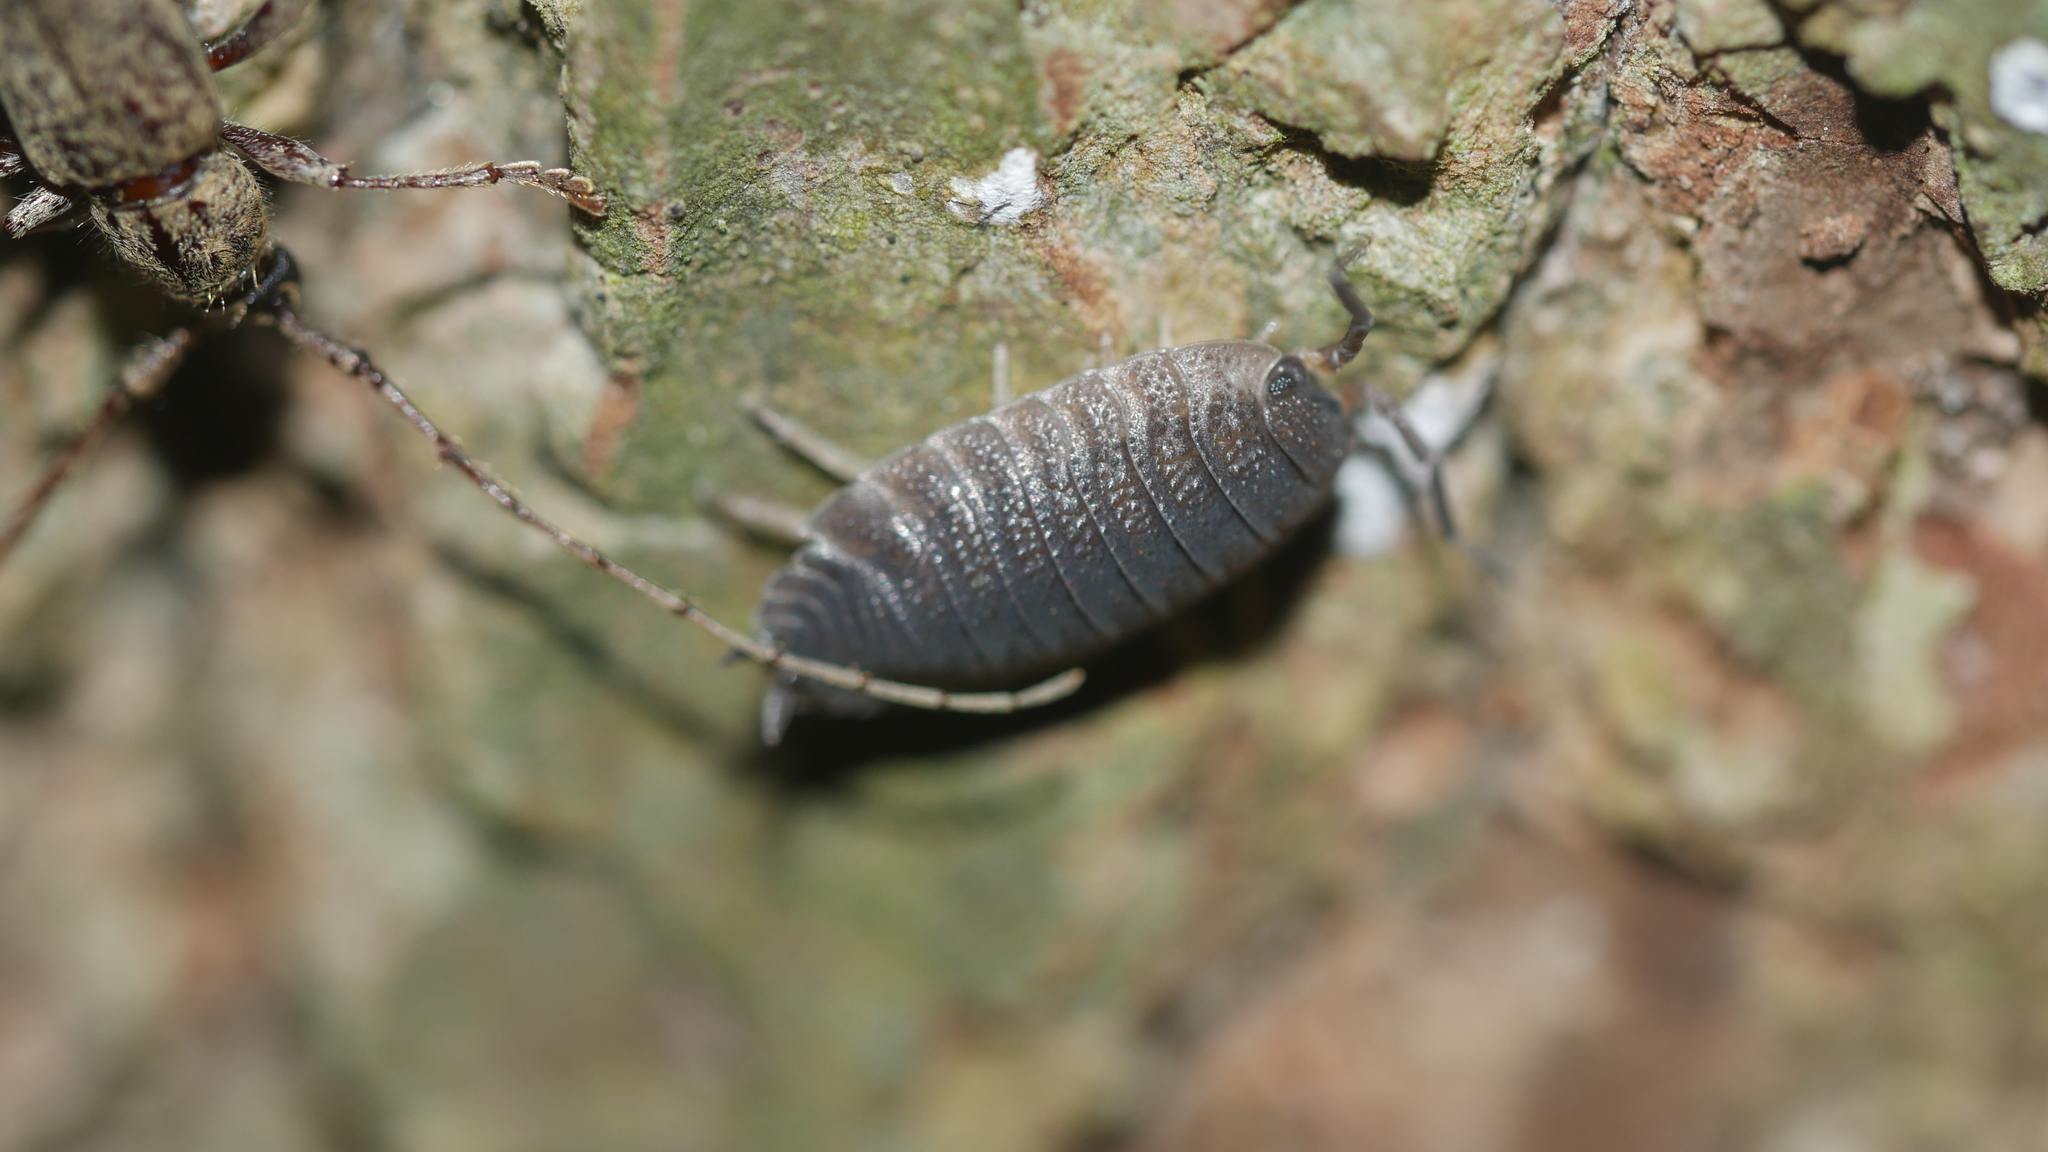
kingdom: Animalia
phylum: Arthropoda
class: Malacostraca
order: Isopoda
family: Porcellionidae
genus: Porcellio
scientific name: Porcellio scaber
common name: Common rough woodlouse
